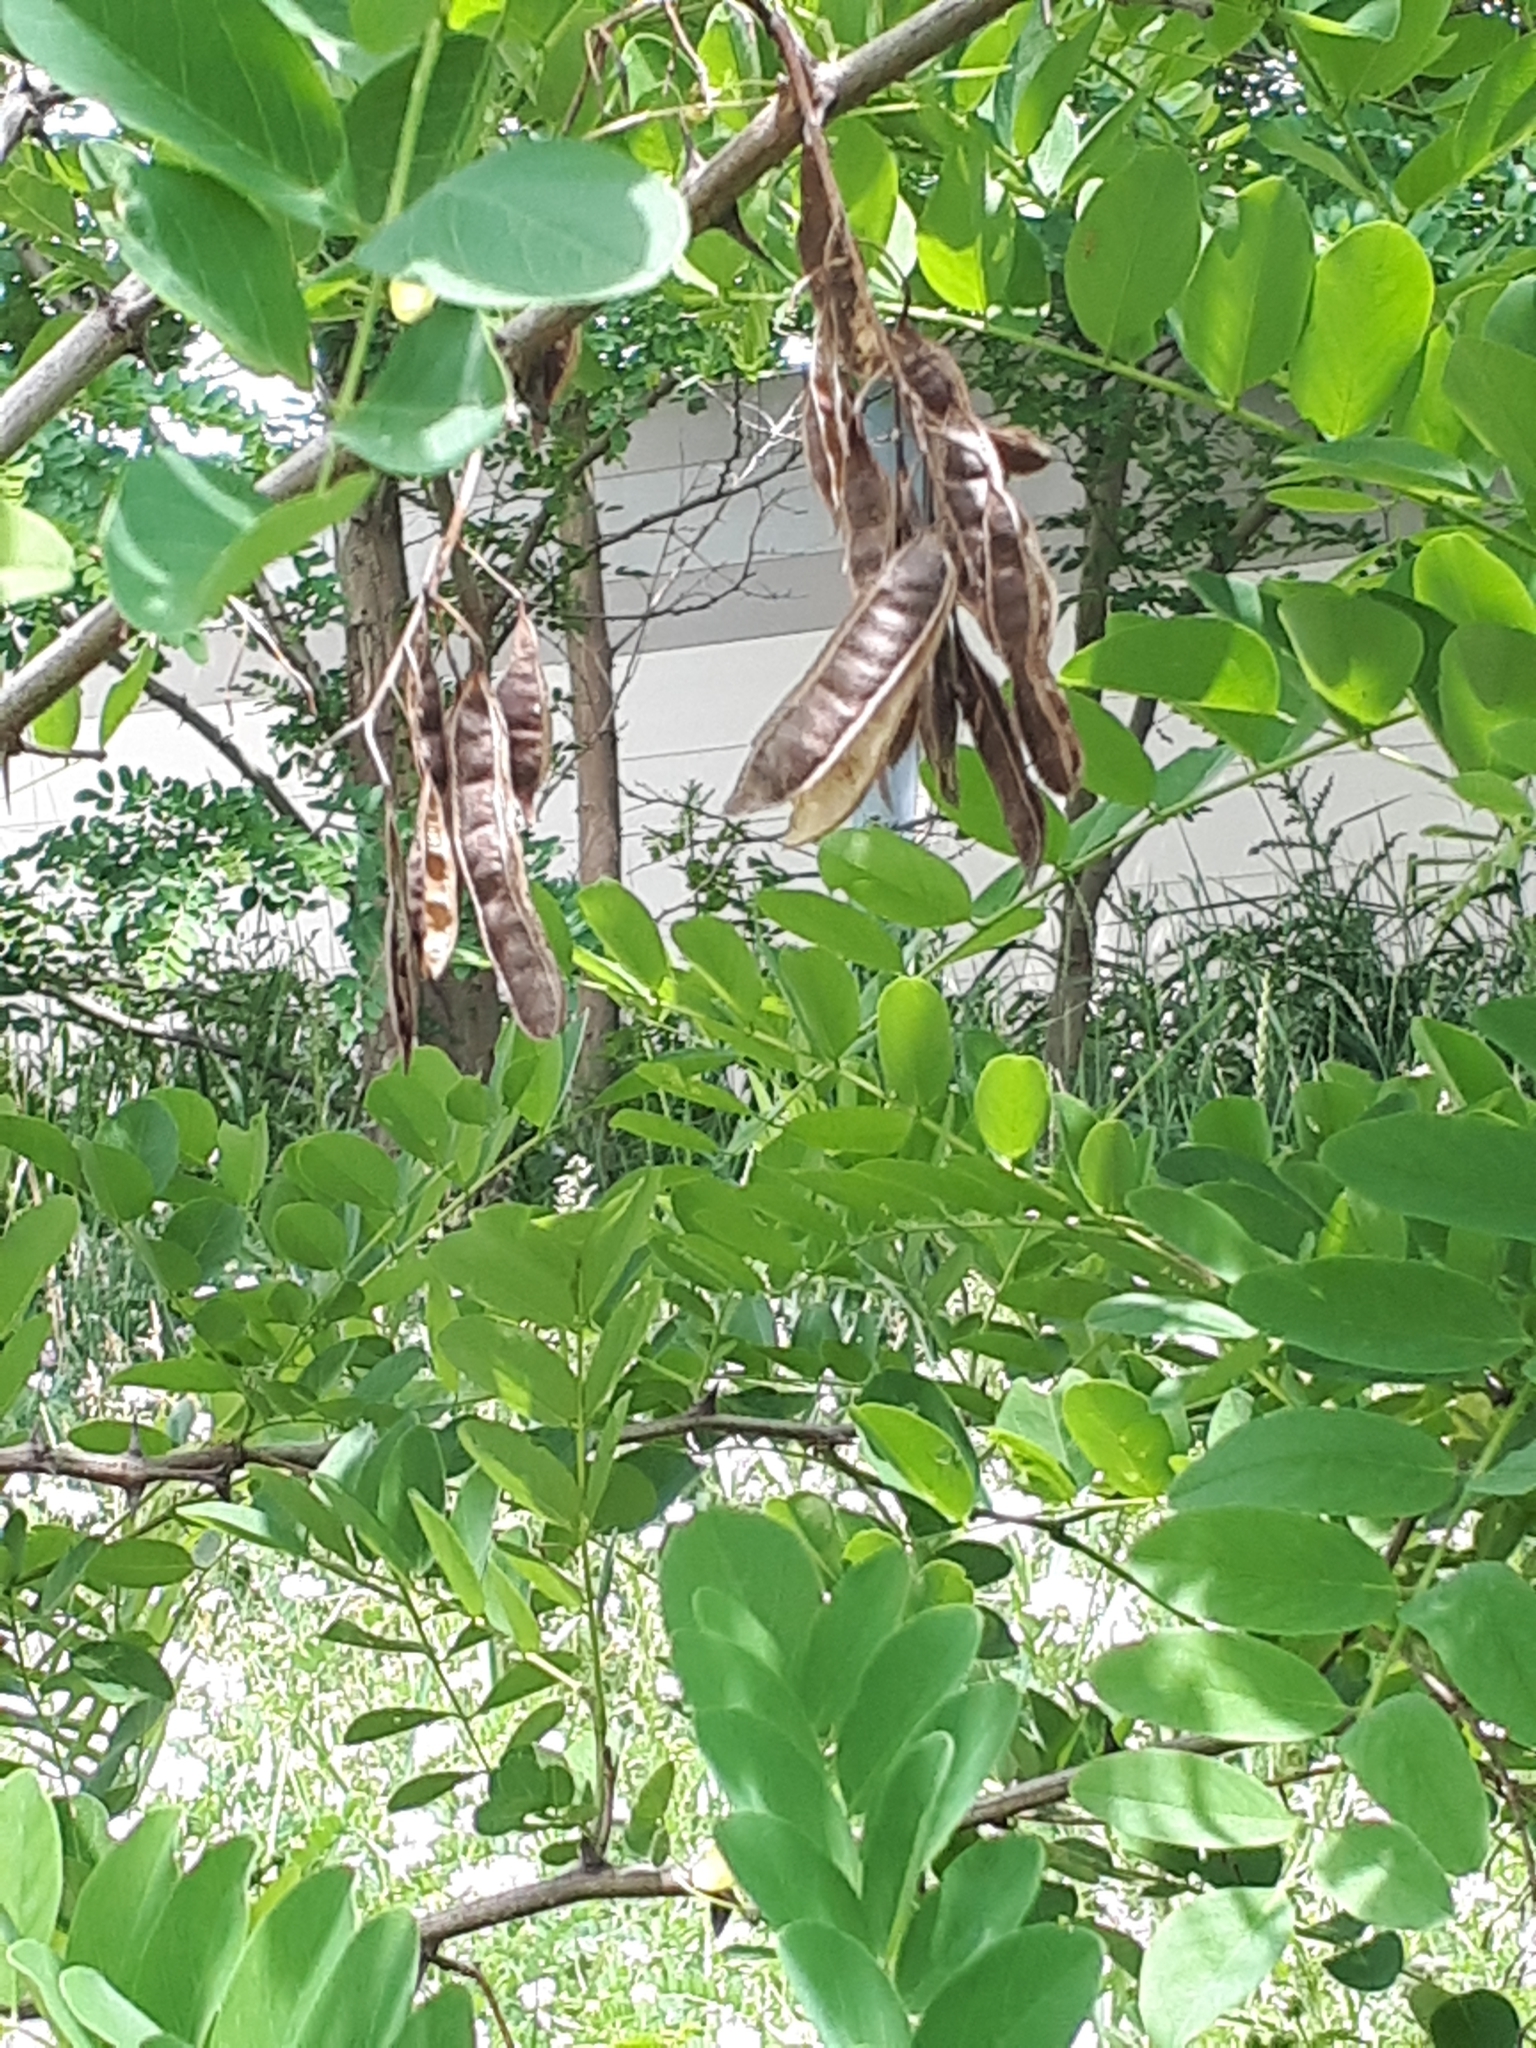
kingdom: Plantae
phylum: Tracheophyta
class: Magnoliopsida
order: Fabales
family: Fabaceae
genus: Robinia
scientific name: Robinia pseudoacacia
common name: Black locust
